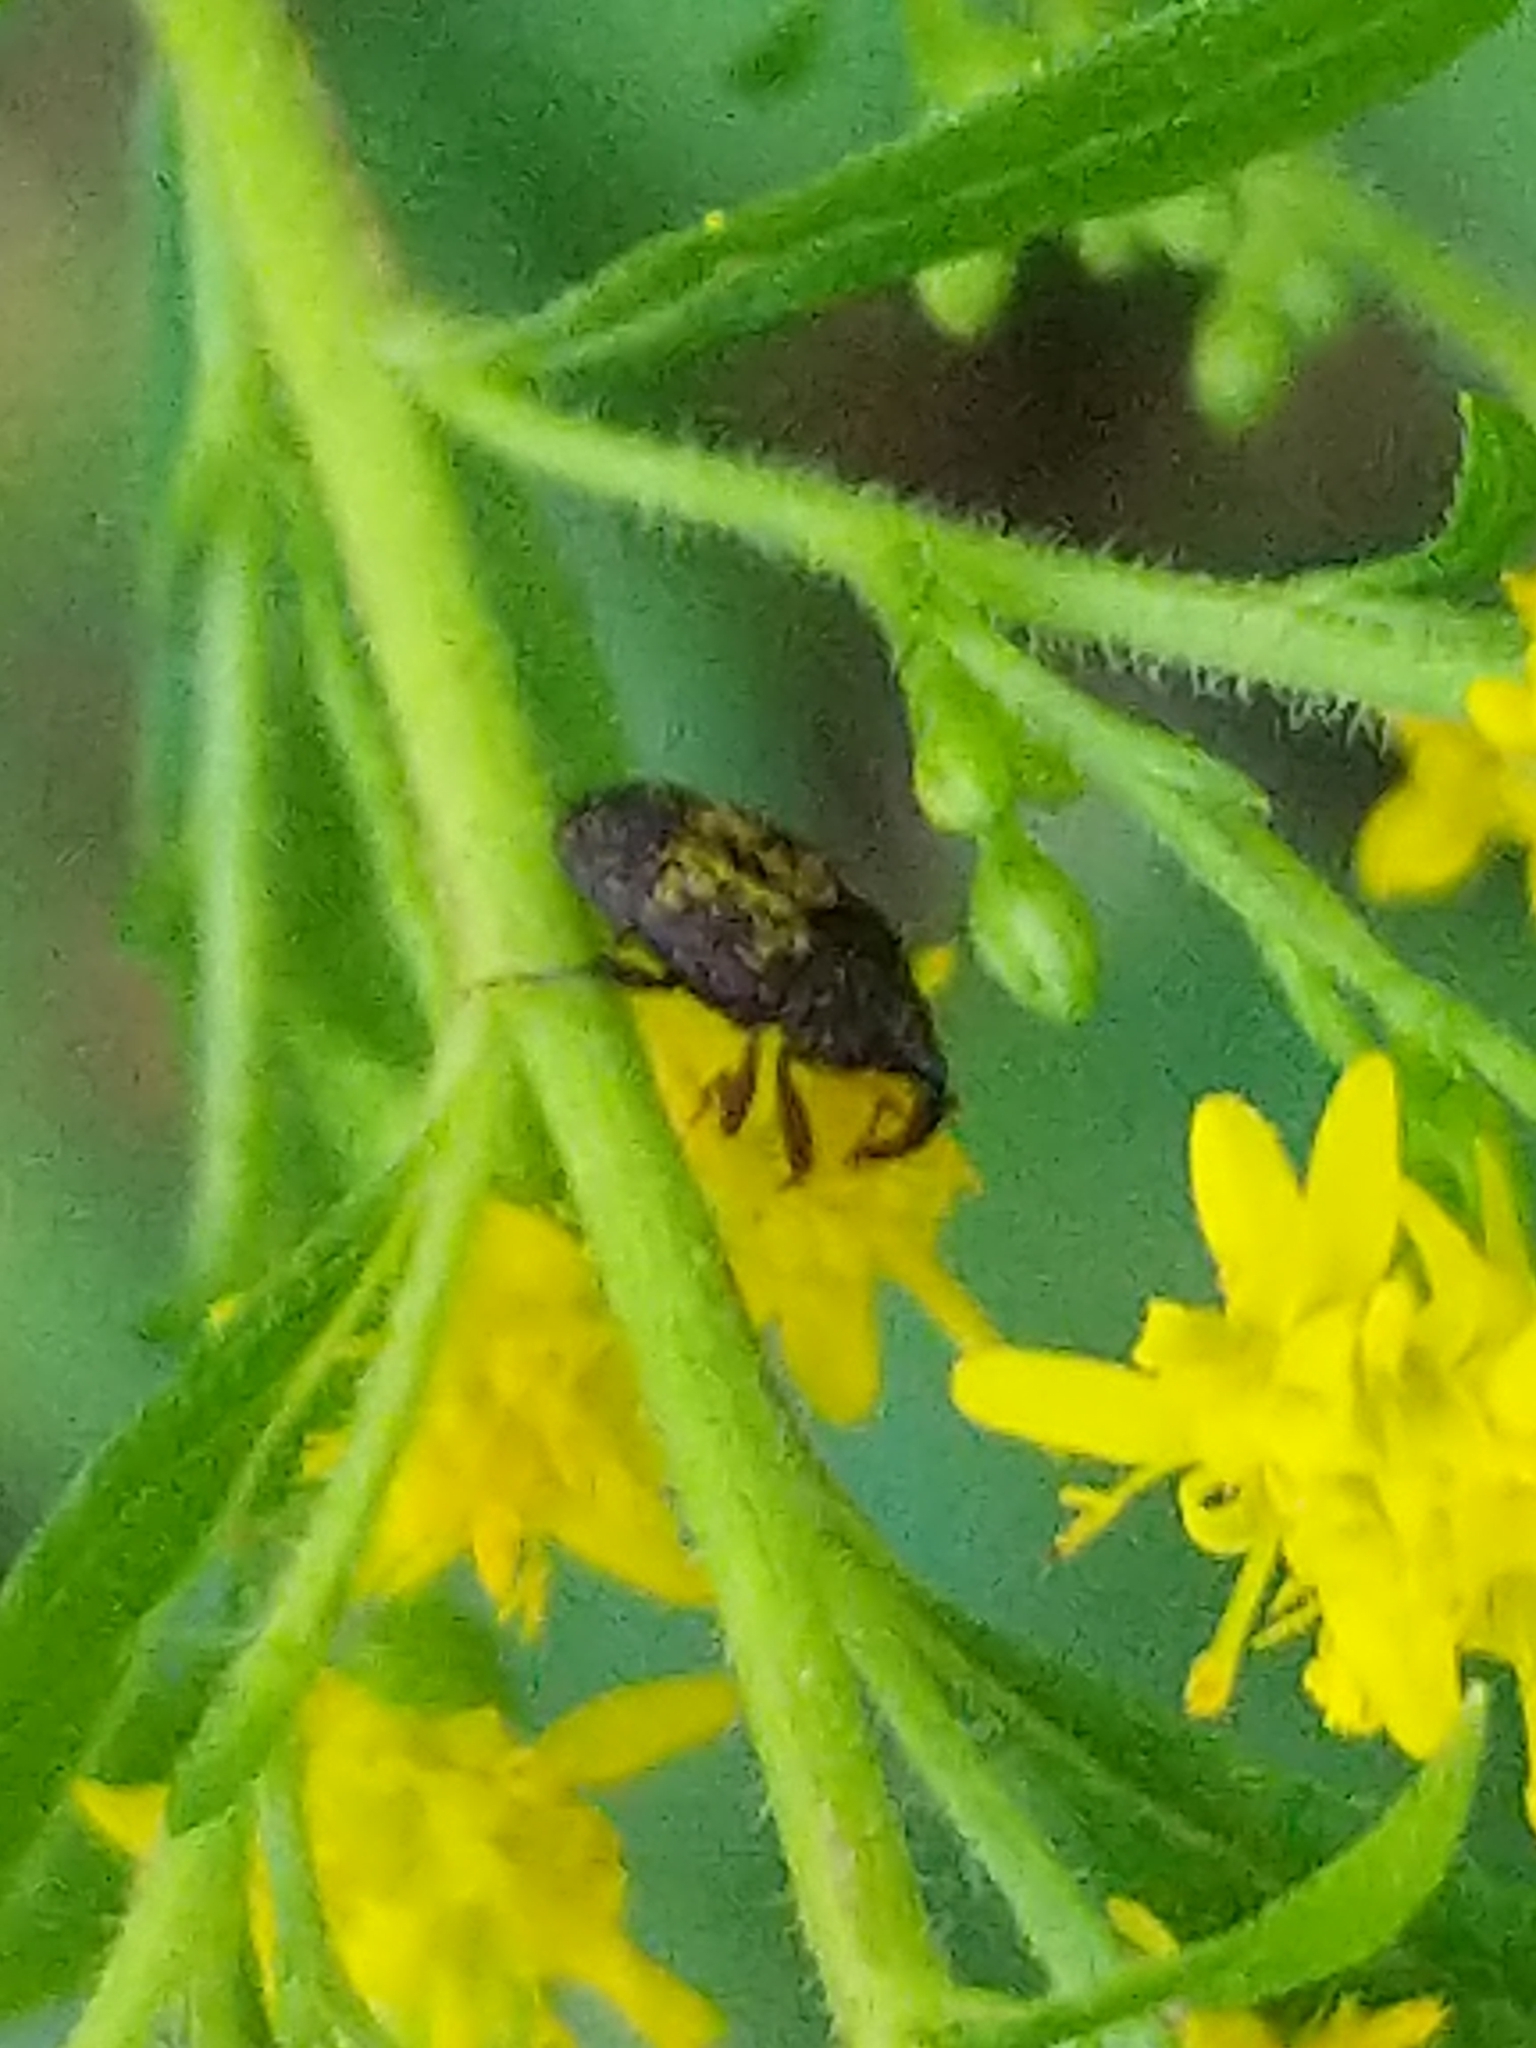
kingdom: Animalia
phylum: Arthropoda
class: Insecta
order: Coleoptera
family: Curculionidae
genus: Glyptobaris
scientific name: Glyptobaris lecontei
